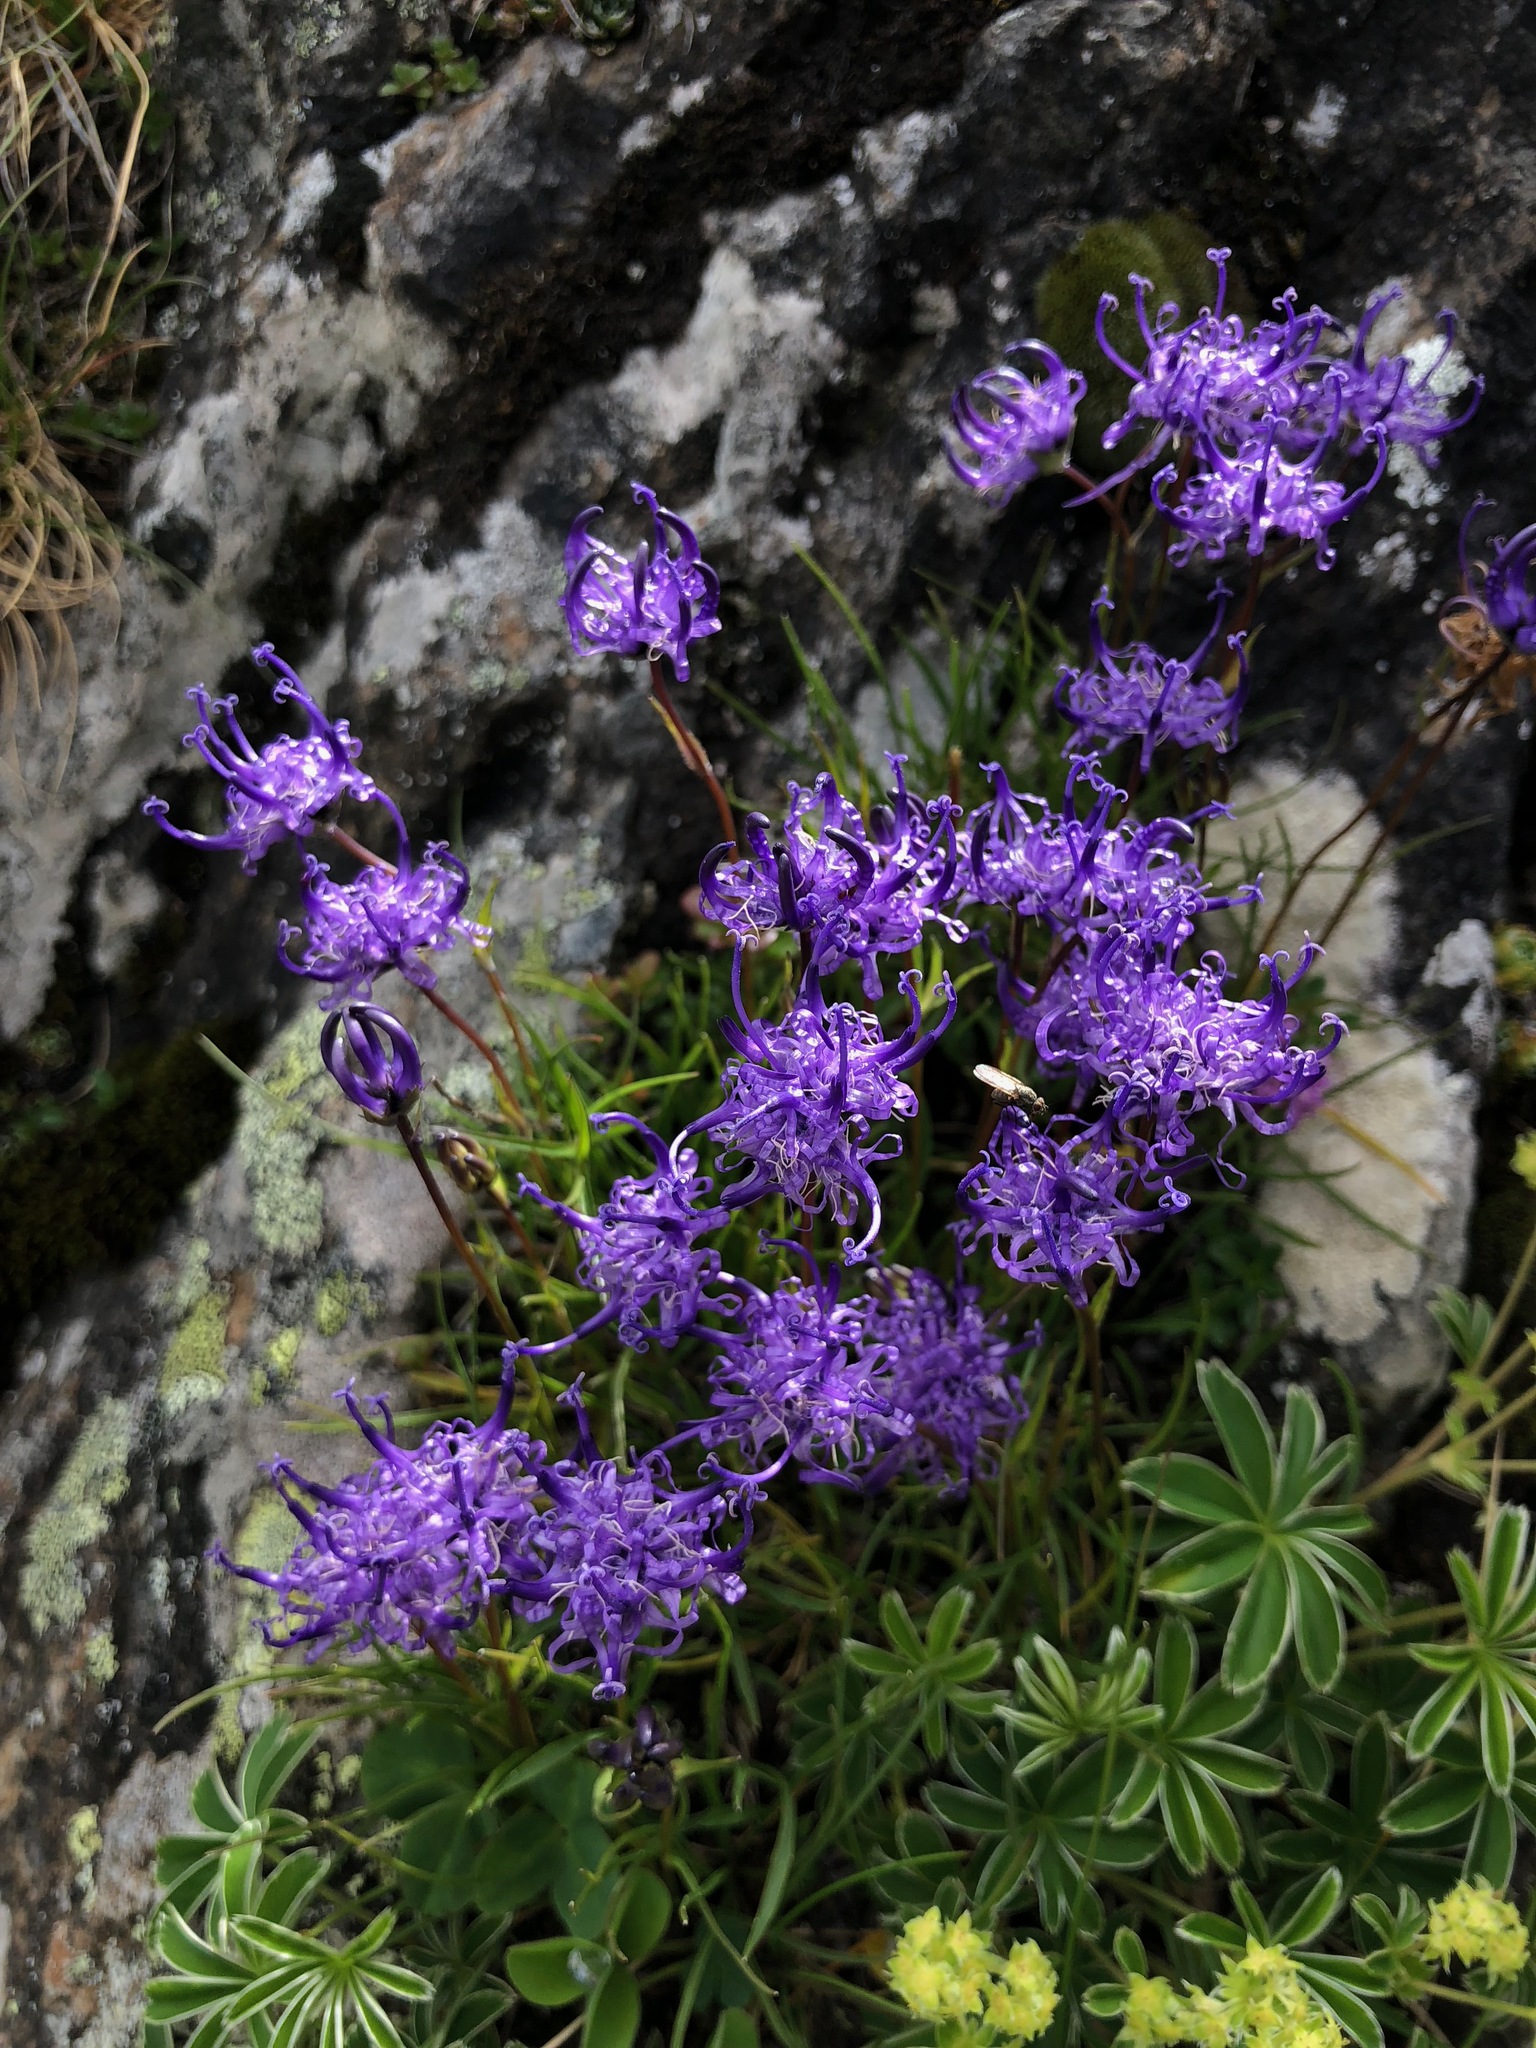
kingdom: Plantae
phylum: Tracheophyta
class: Magnoliopsida
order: Asterales
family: Campanulaceae
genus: Phyteuma
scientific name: Phyteuma hemisphaericum
